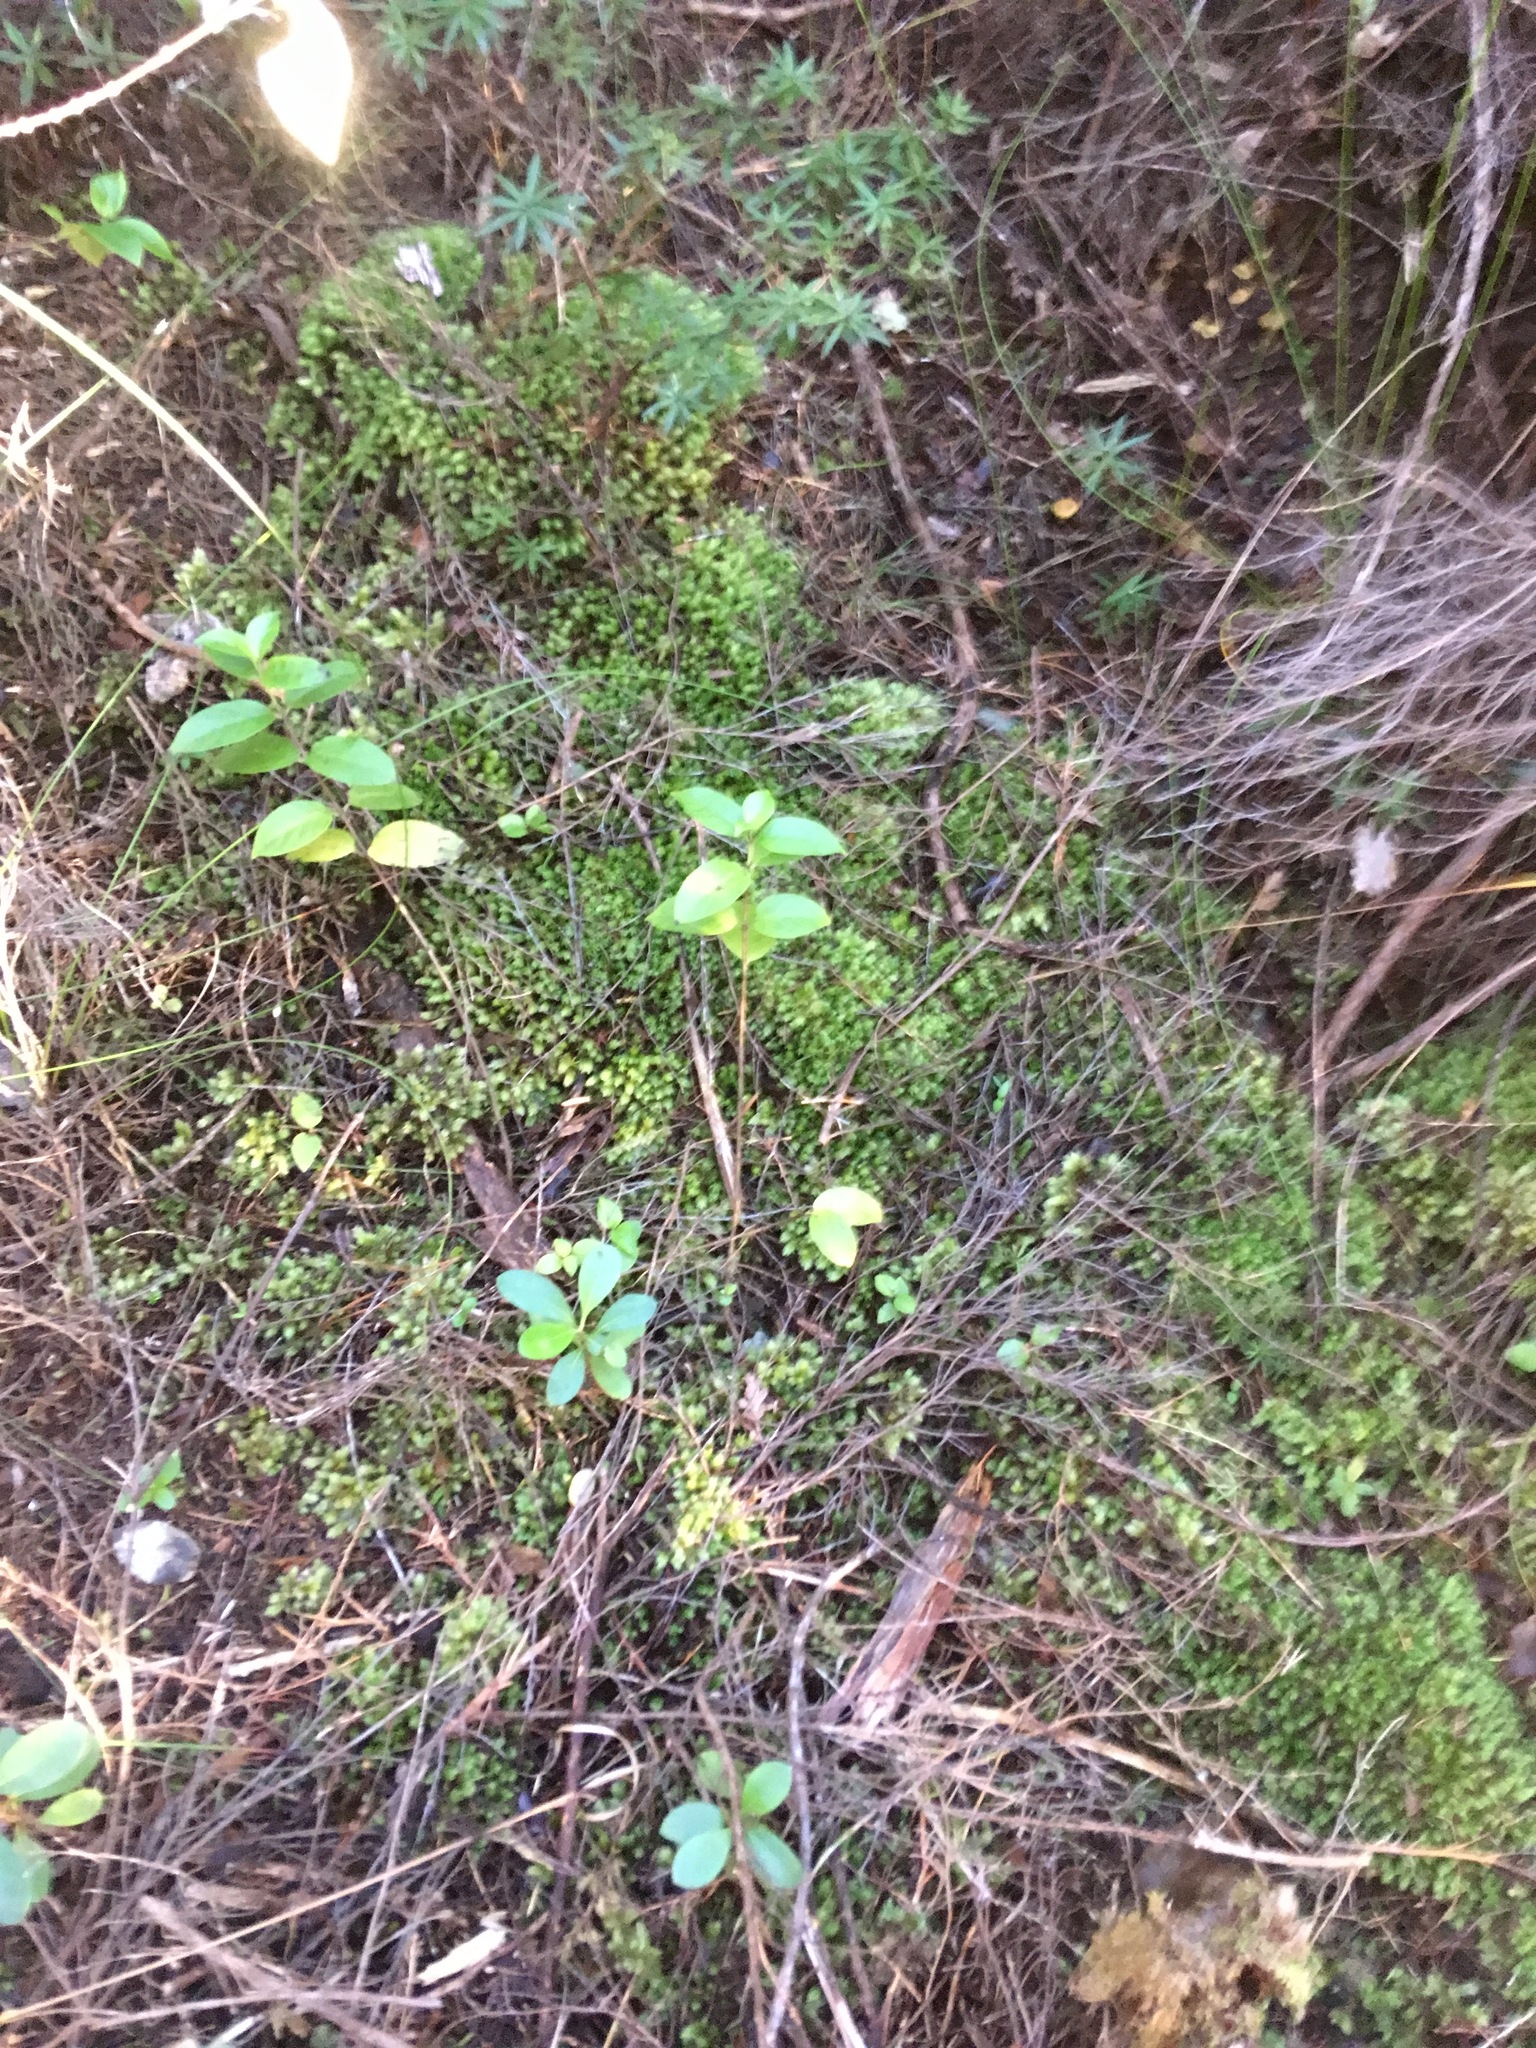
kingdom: Plantae
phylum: Bryophyta
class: Bryopsida
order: Dicranales
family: Leucobryaceae
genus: Leucobryum
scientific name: Leucobryum javense
